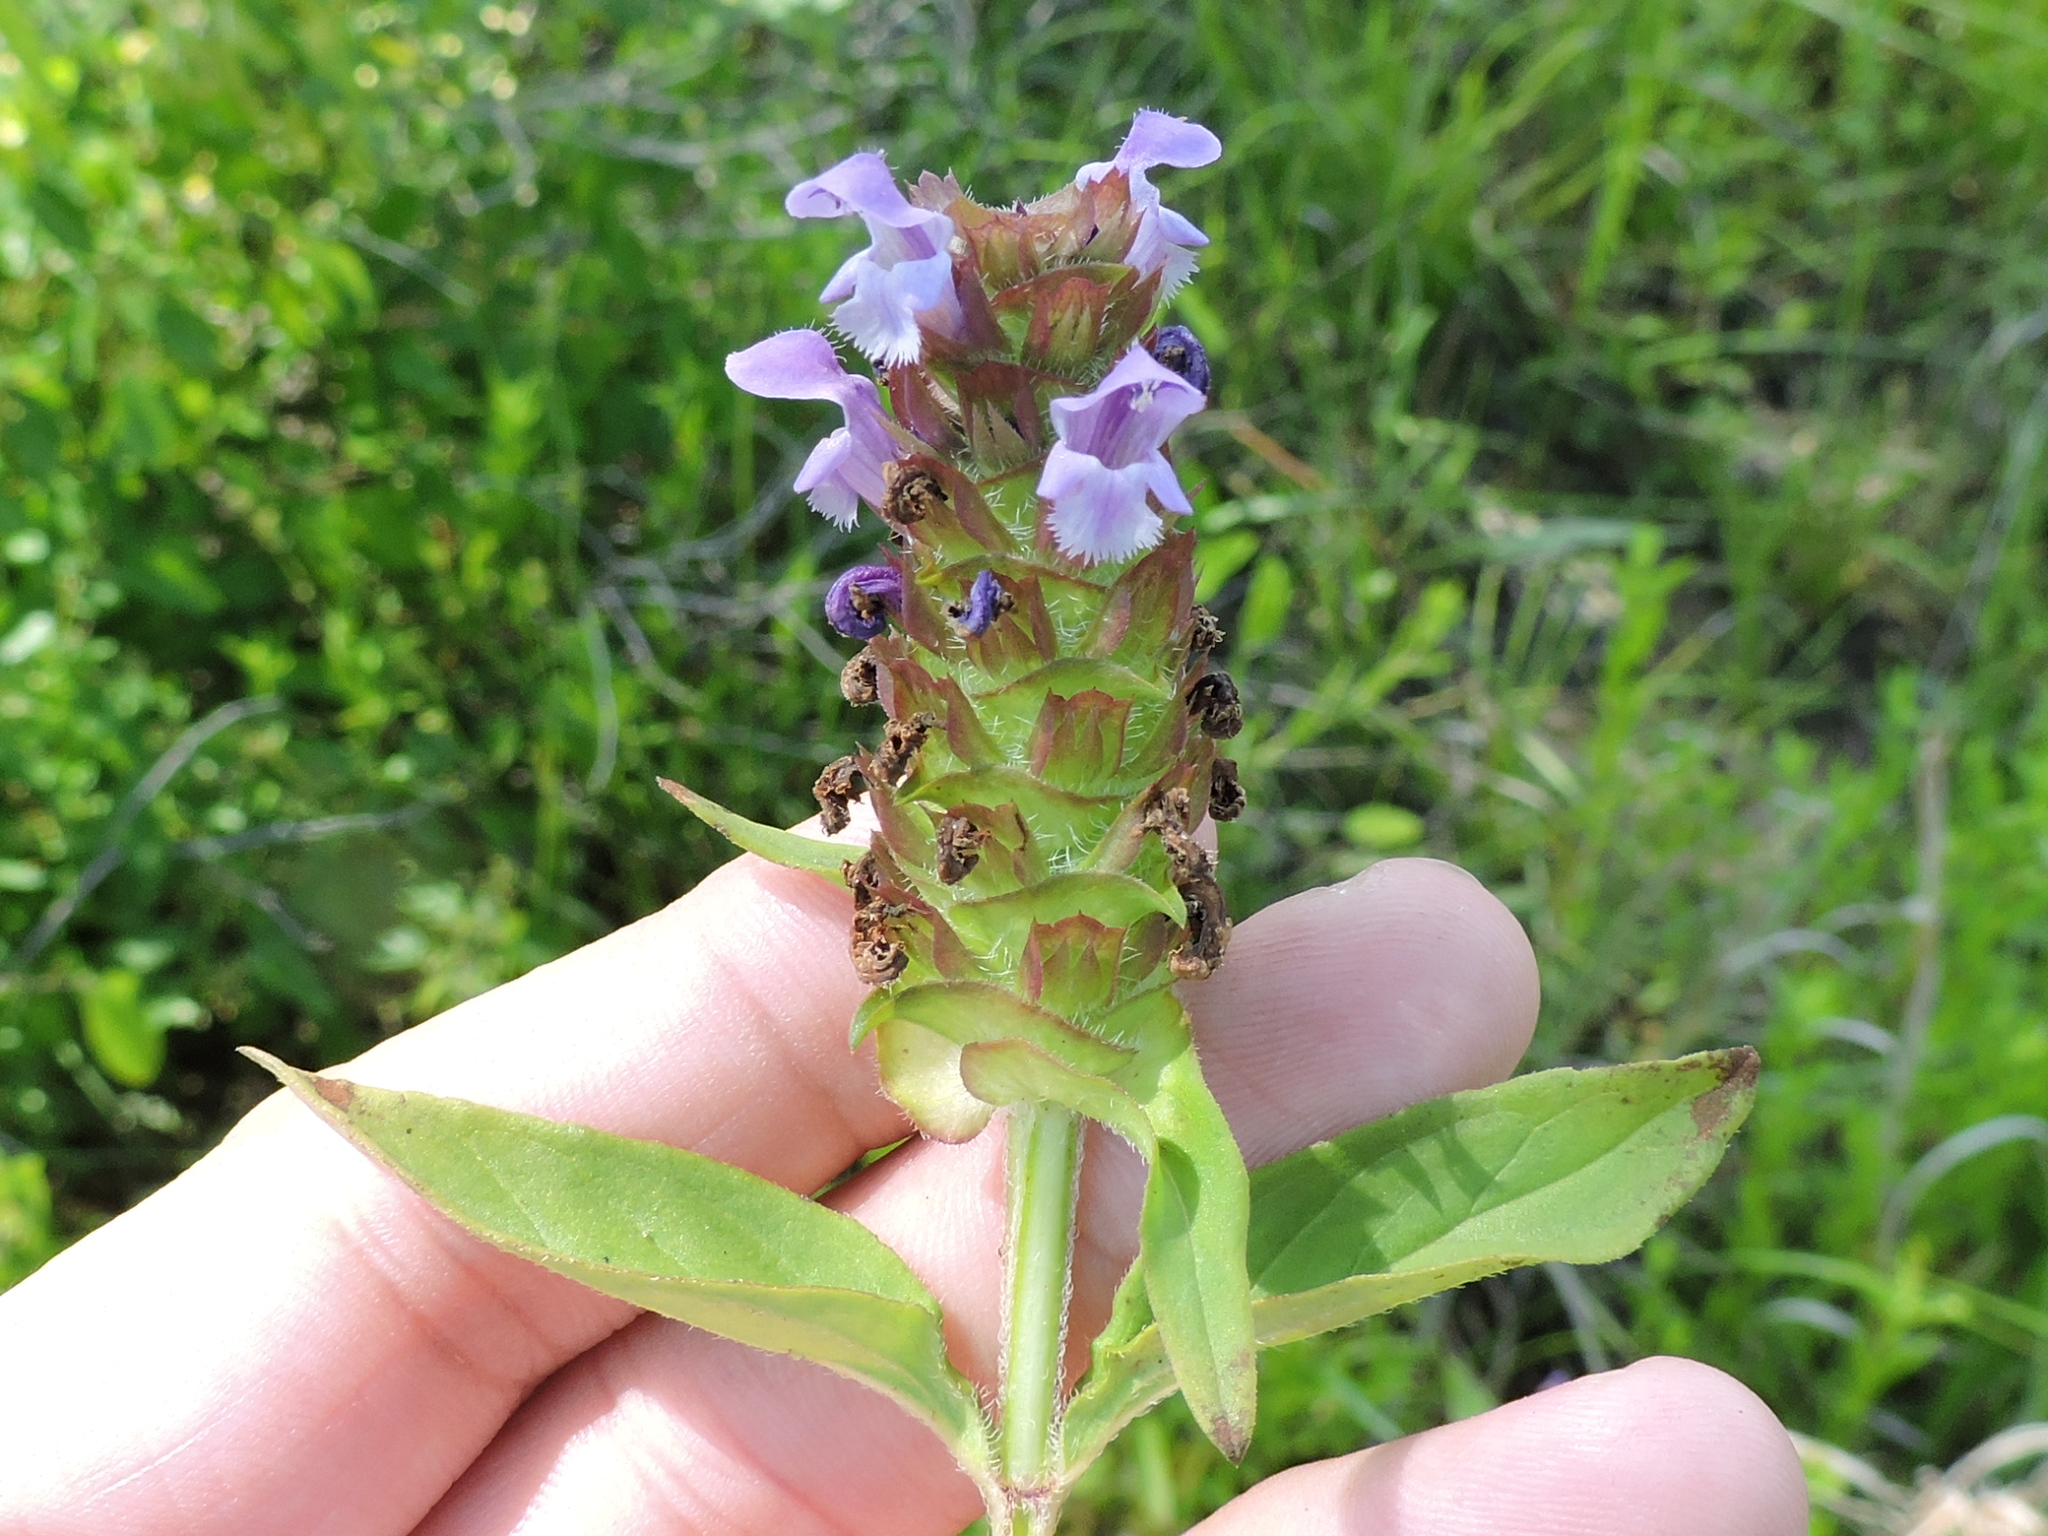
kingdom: Plantae
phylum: Tracheophyta
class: Magnoliopsida
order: Lamiales
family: Lamiaceae
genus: Prunella
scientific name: Prunella vulgaris
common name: Heal-all
